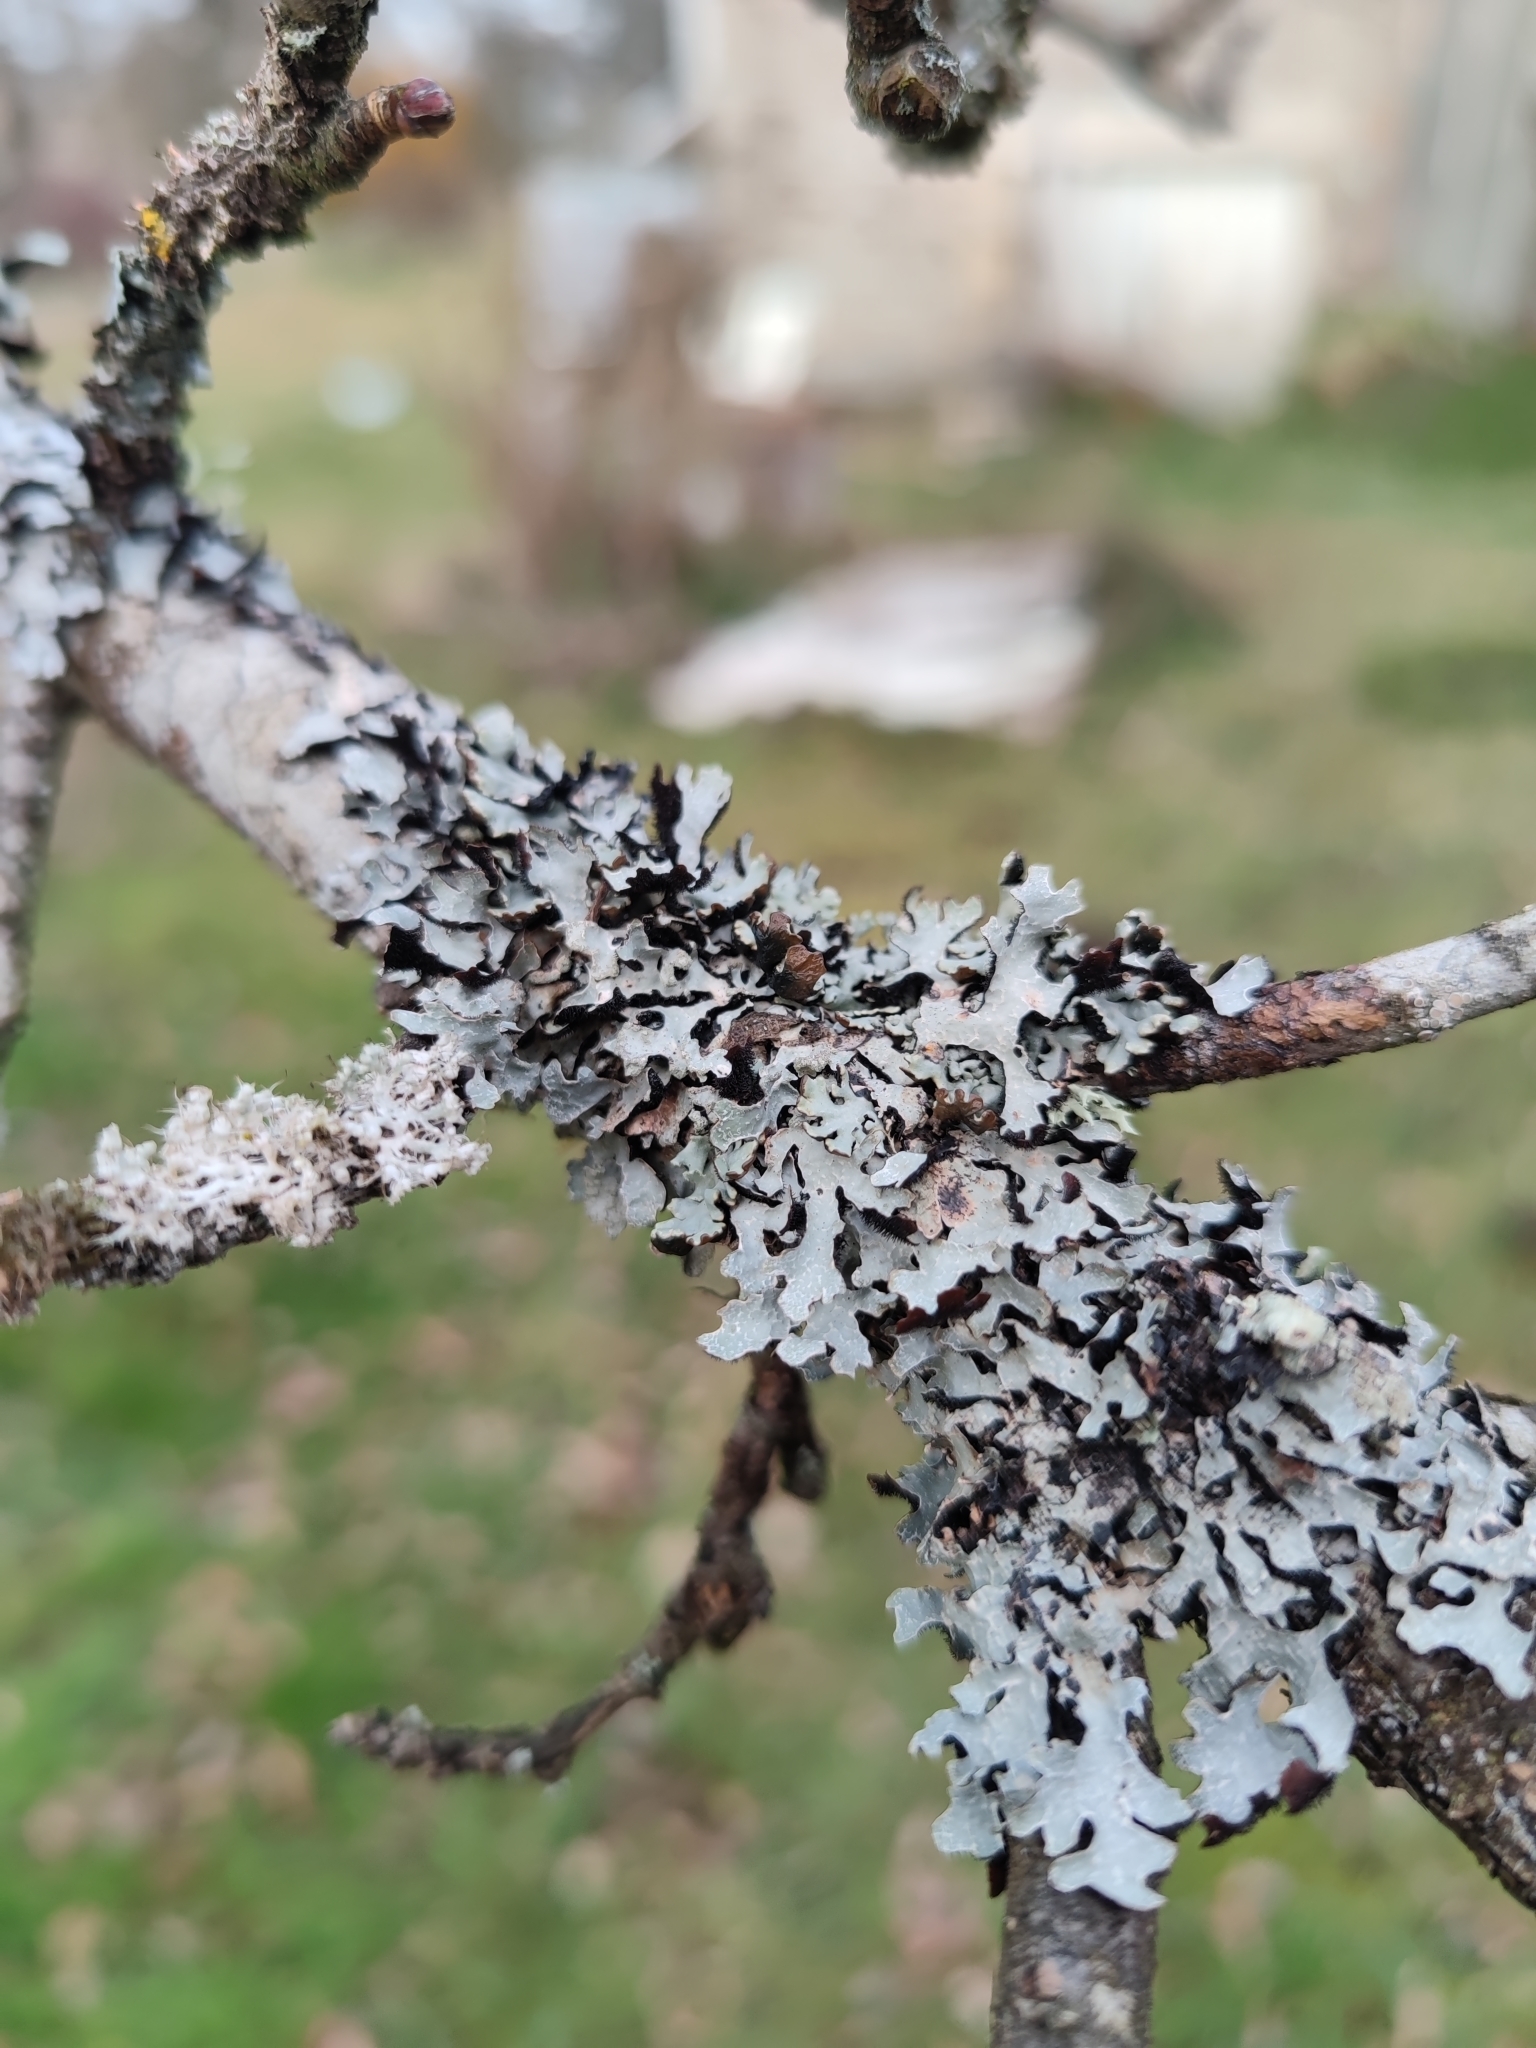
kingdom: Fungi
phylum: Ascomycota
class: Lecanoromycetes
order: Lecanorales
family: Parmeliaceae
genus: Parmelia
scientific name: Parmelia sulcata
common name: Netted shield lichen
